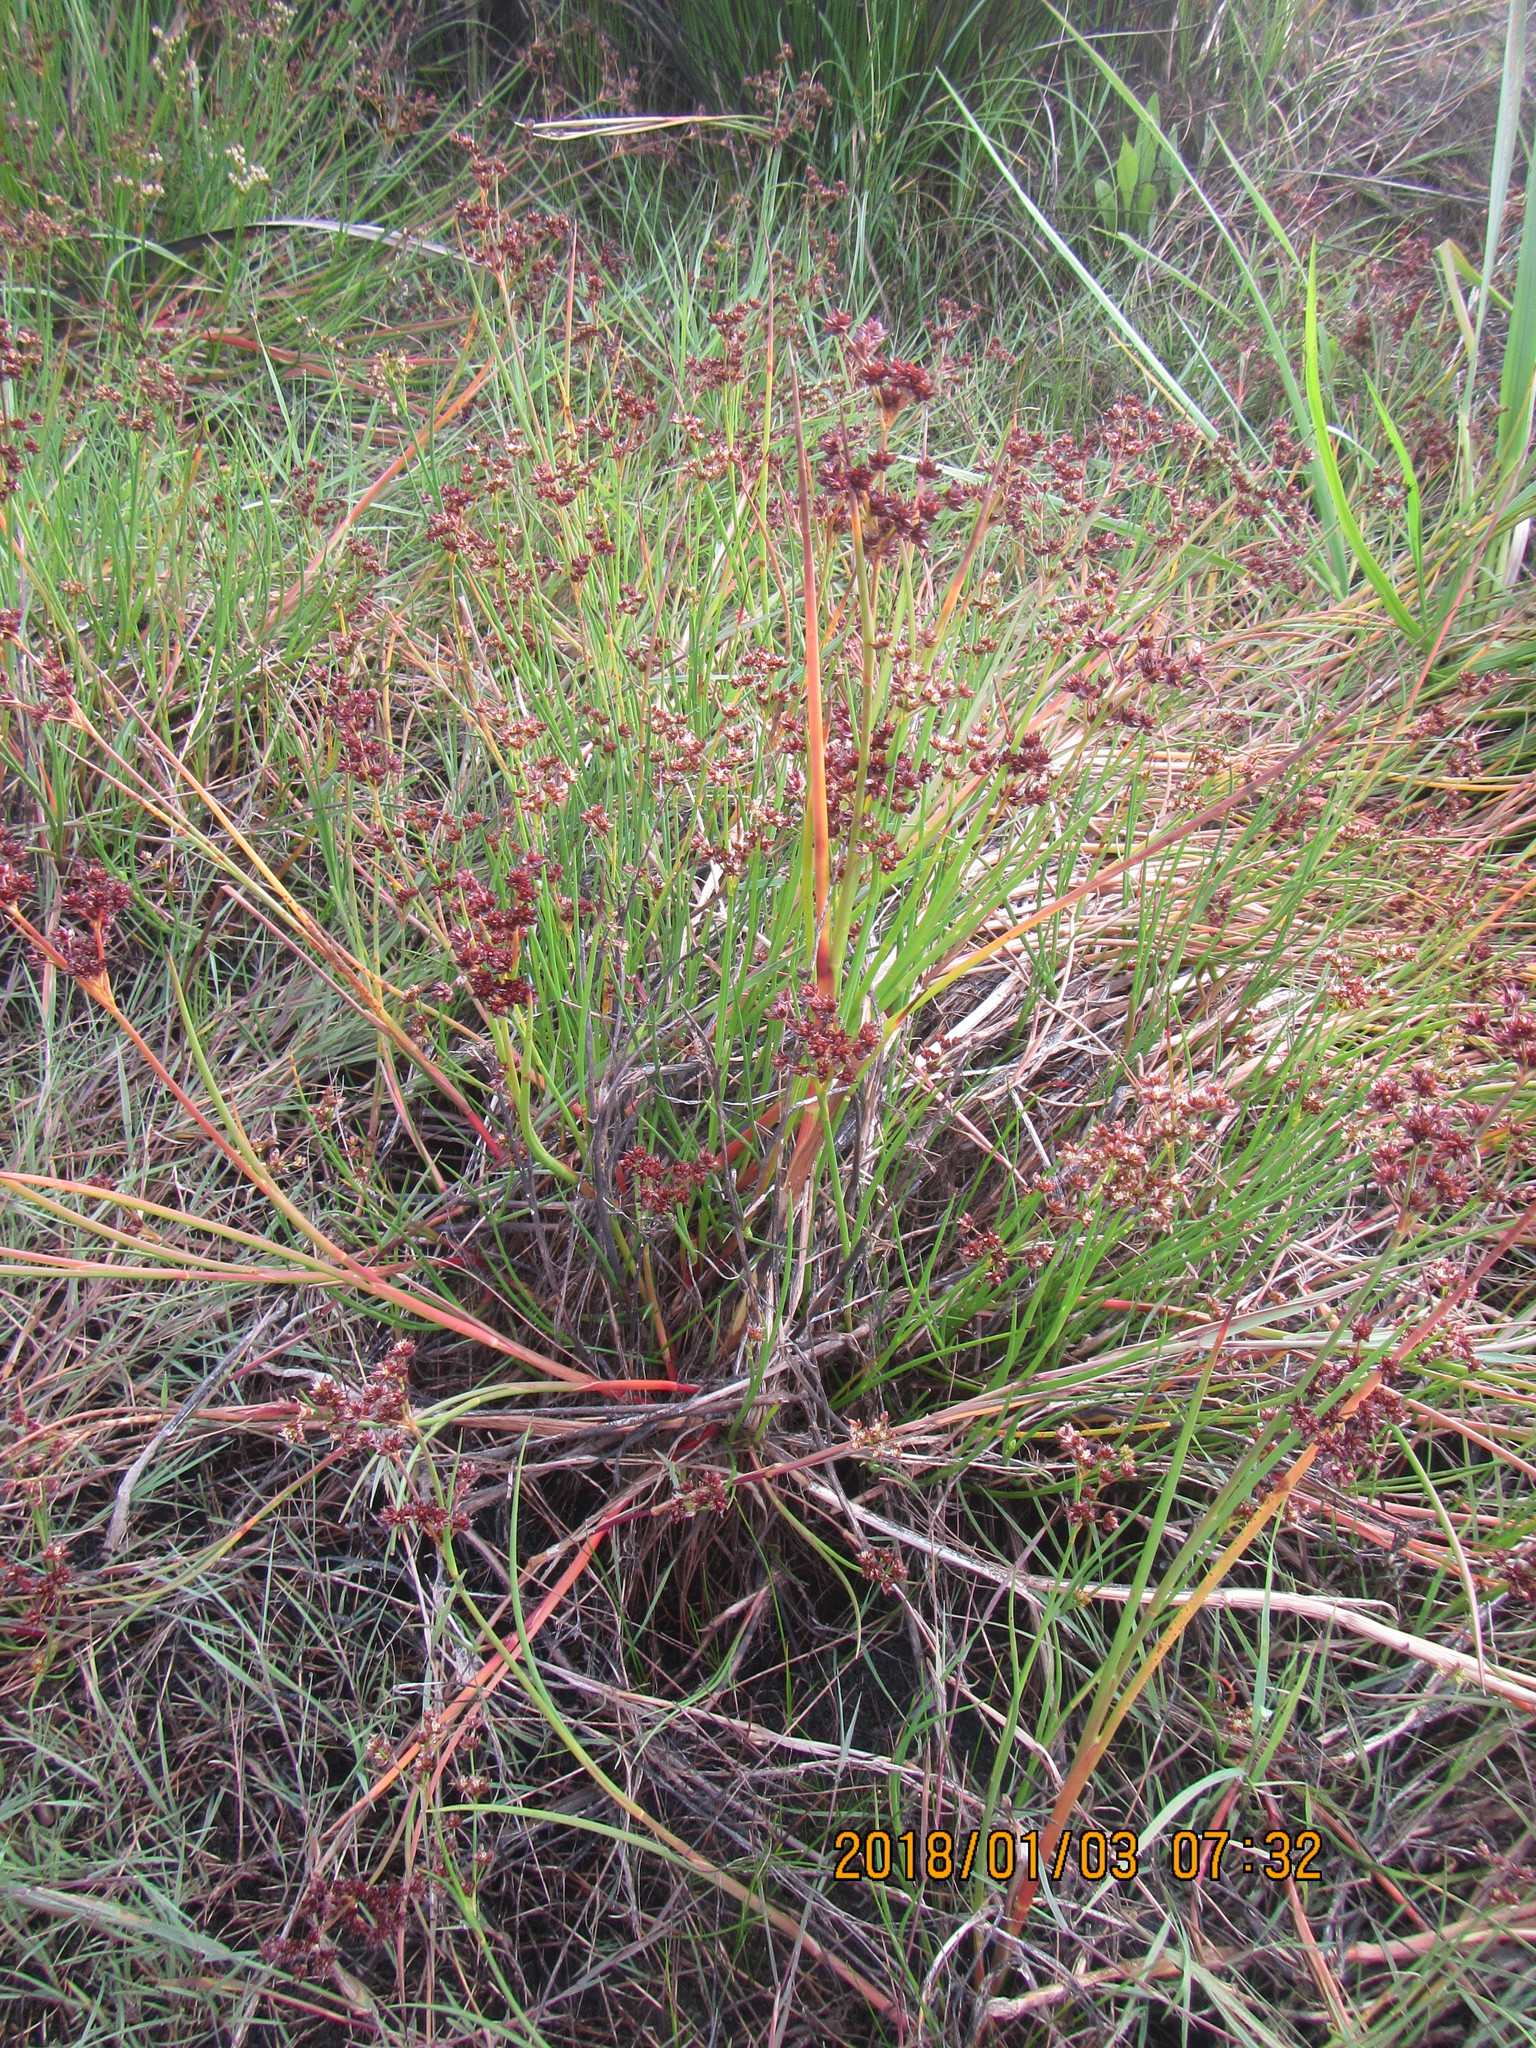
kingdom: Plantae
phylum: Tracheophyta
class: Liliopsida
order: Poales
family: Juncaceae
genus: Juncus
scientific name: Juncus bulbosus
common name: Bulbous rush
